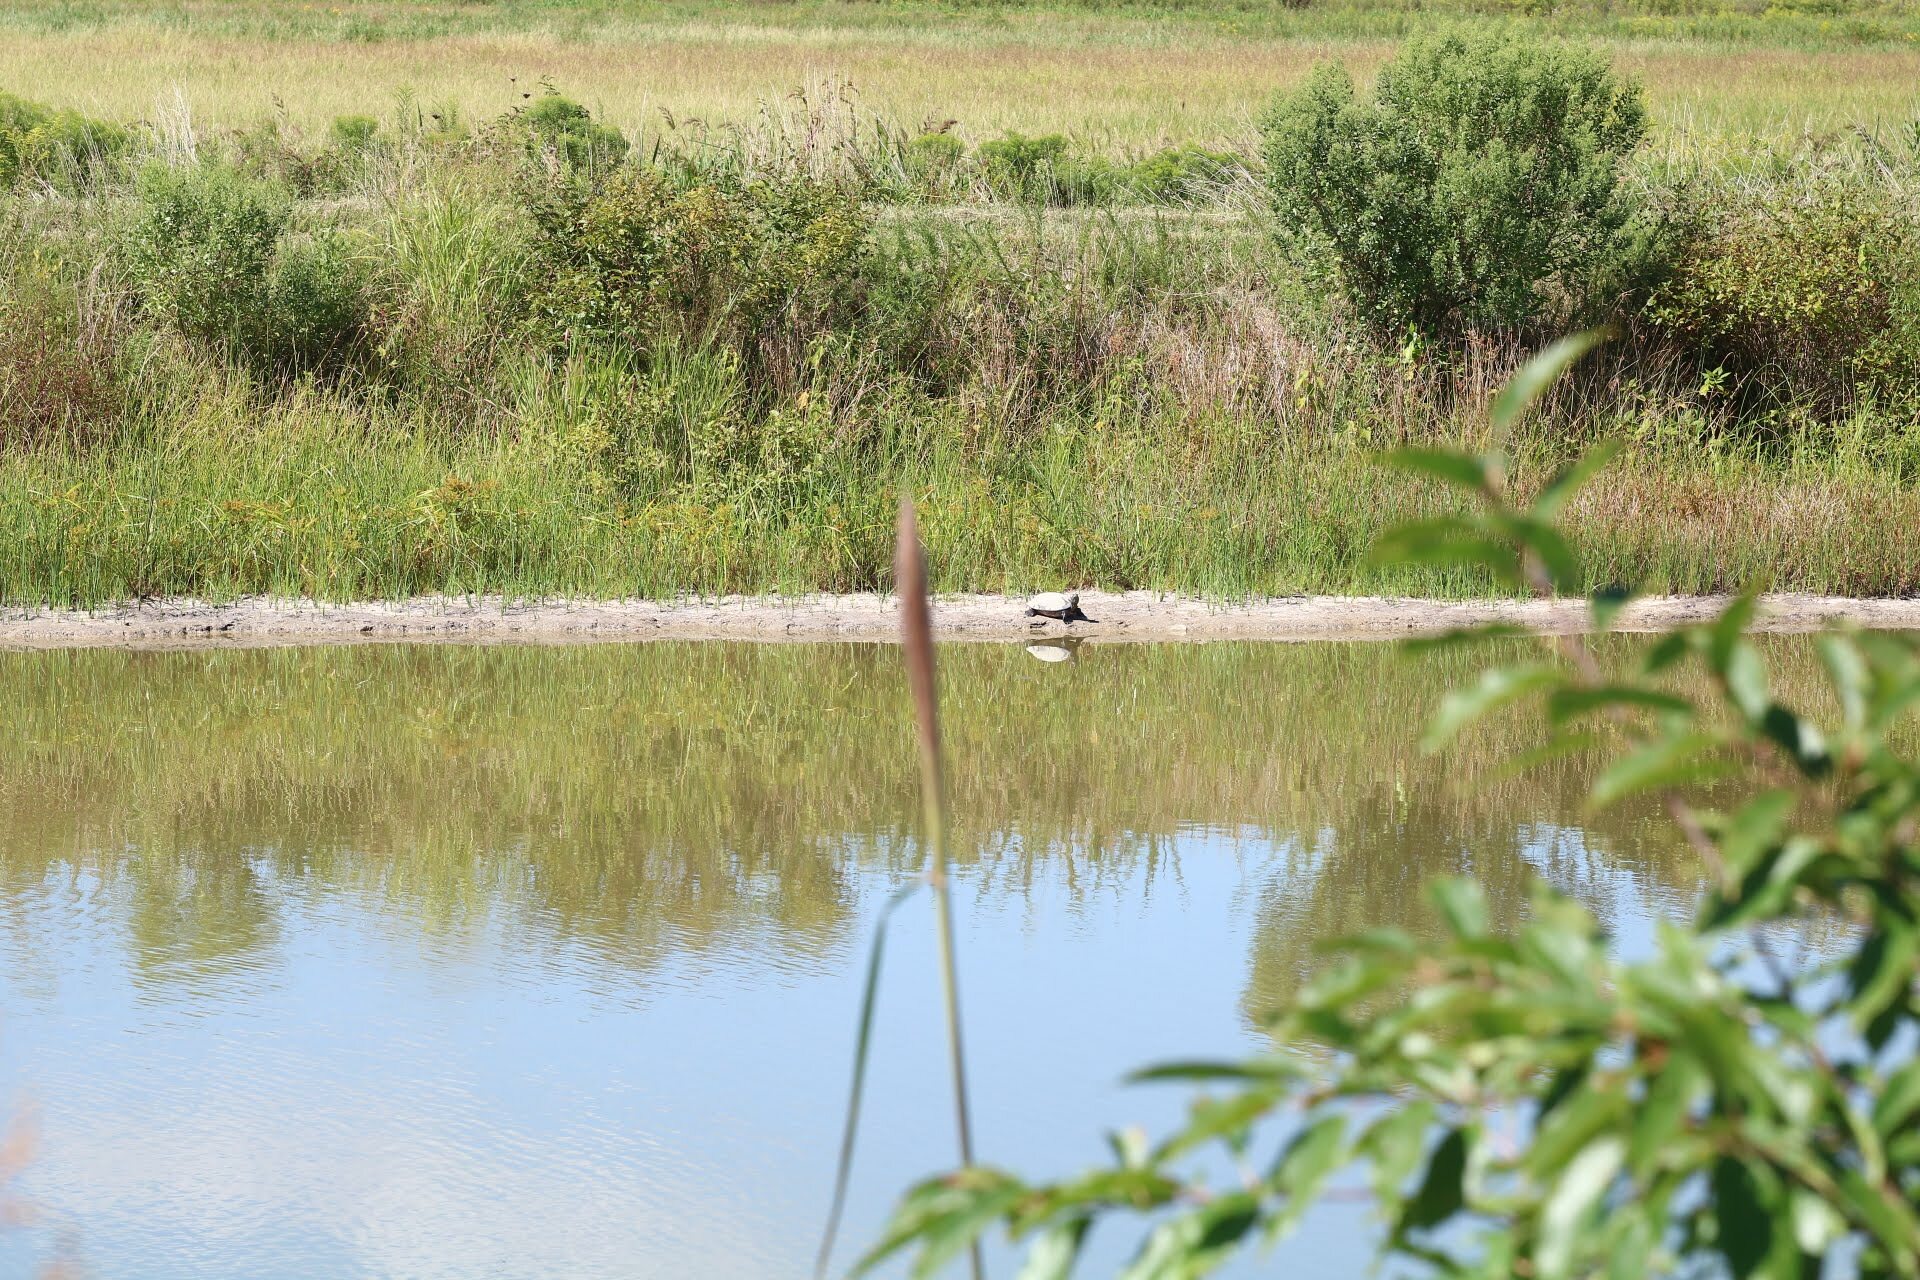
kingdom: Animalia
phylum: Chordata
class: Testudines
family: Emydidae
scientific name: Emydidae
